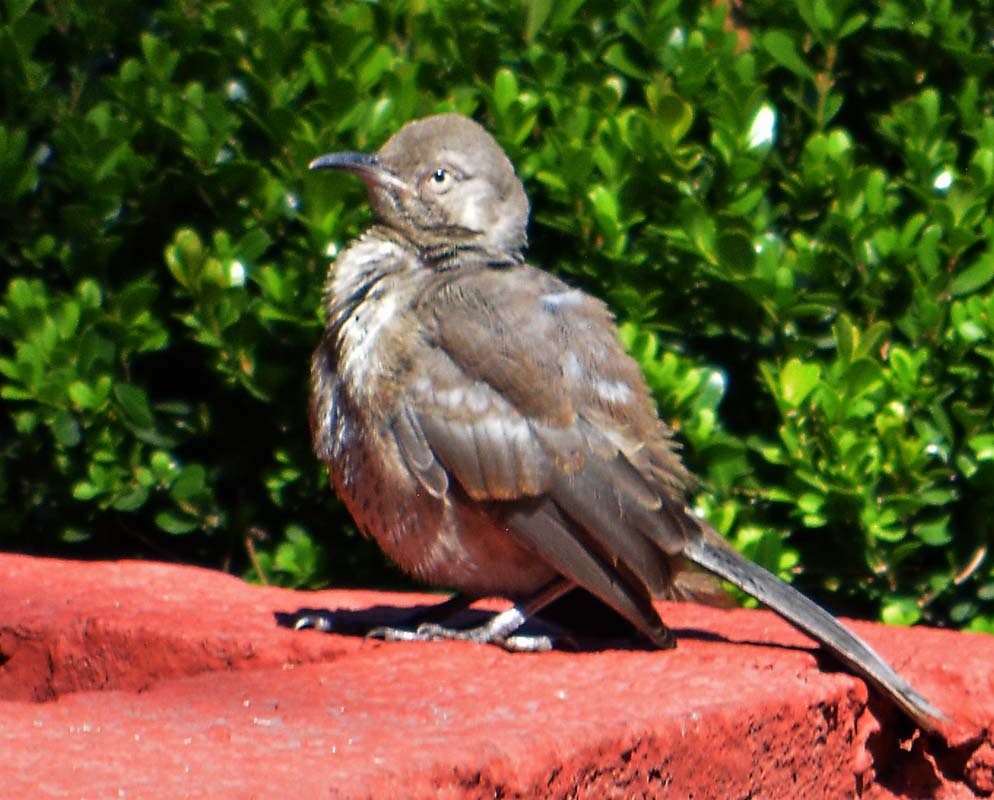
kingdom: Animalia
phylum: Chordata
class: Aves
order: Passeriformes
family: Mimidae
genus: Toxostoma
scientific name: Toxostoma curvirostre
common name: Curve-billed thrasher
